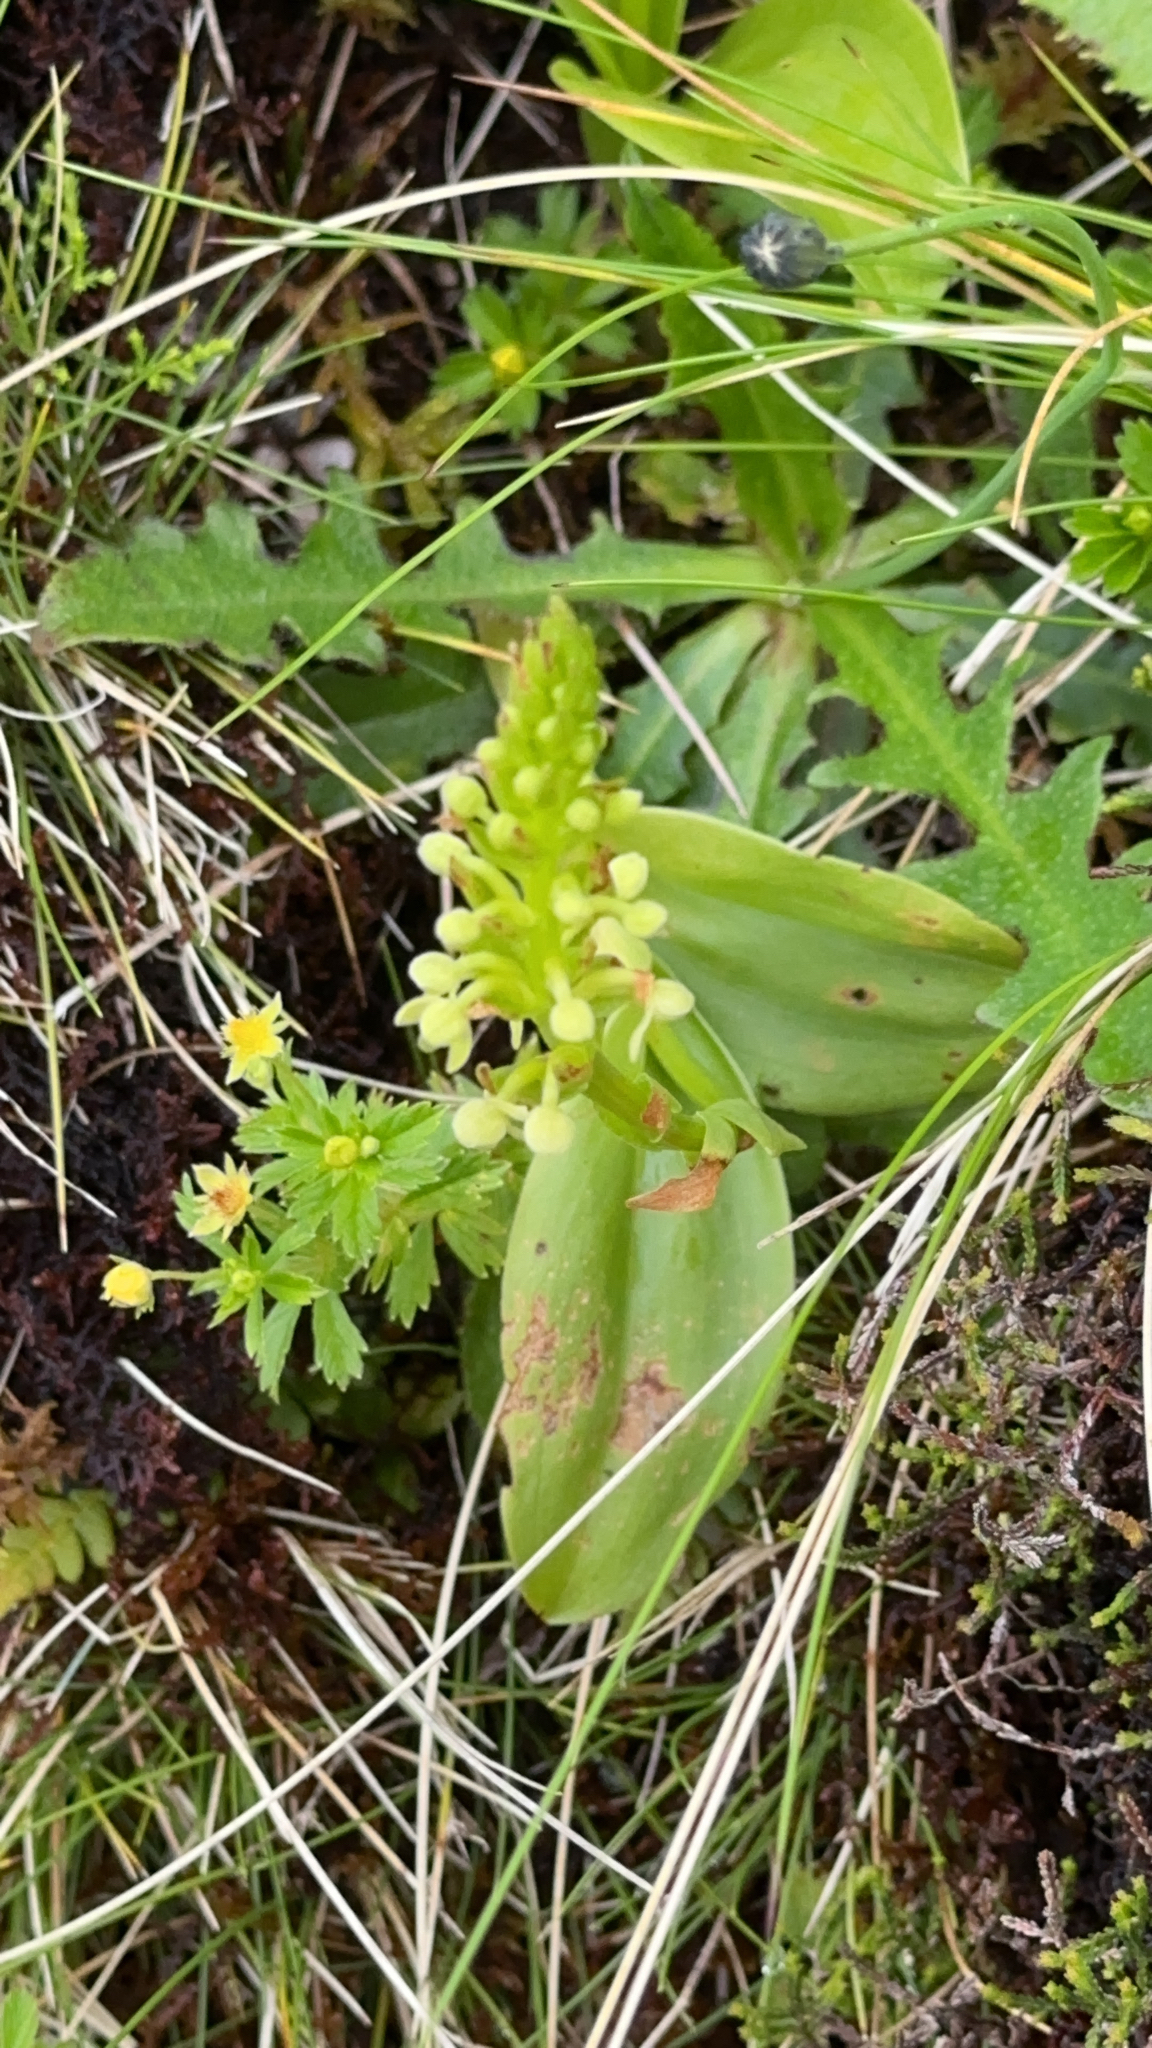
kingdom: Plantae
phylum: Tracheophyta
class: Liliopsida
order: Asparagales
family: Orchidaceae
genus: Platanthera
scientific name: Platanthera pollostantha
